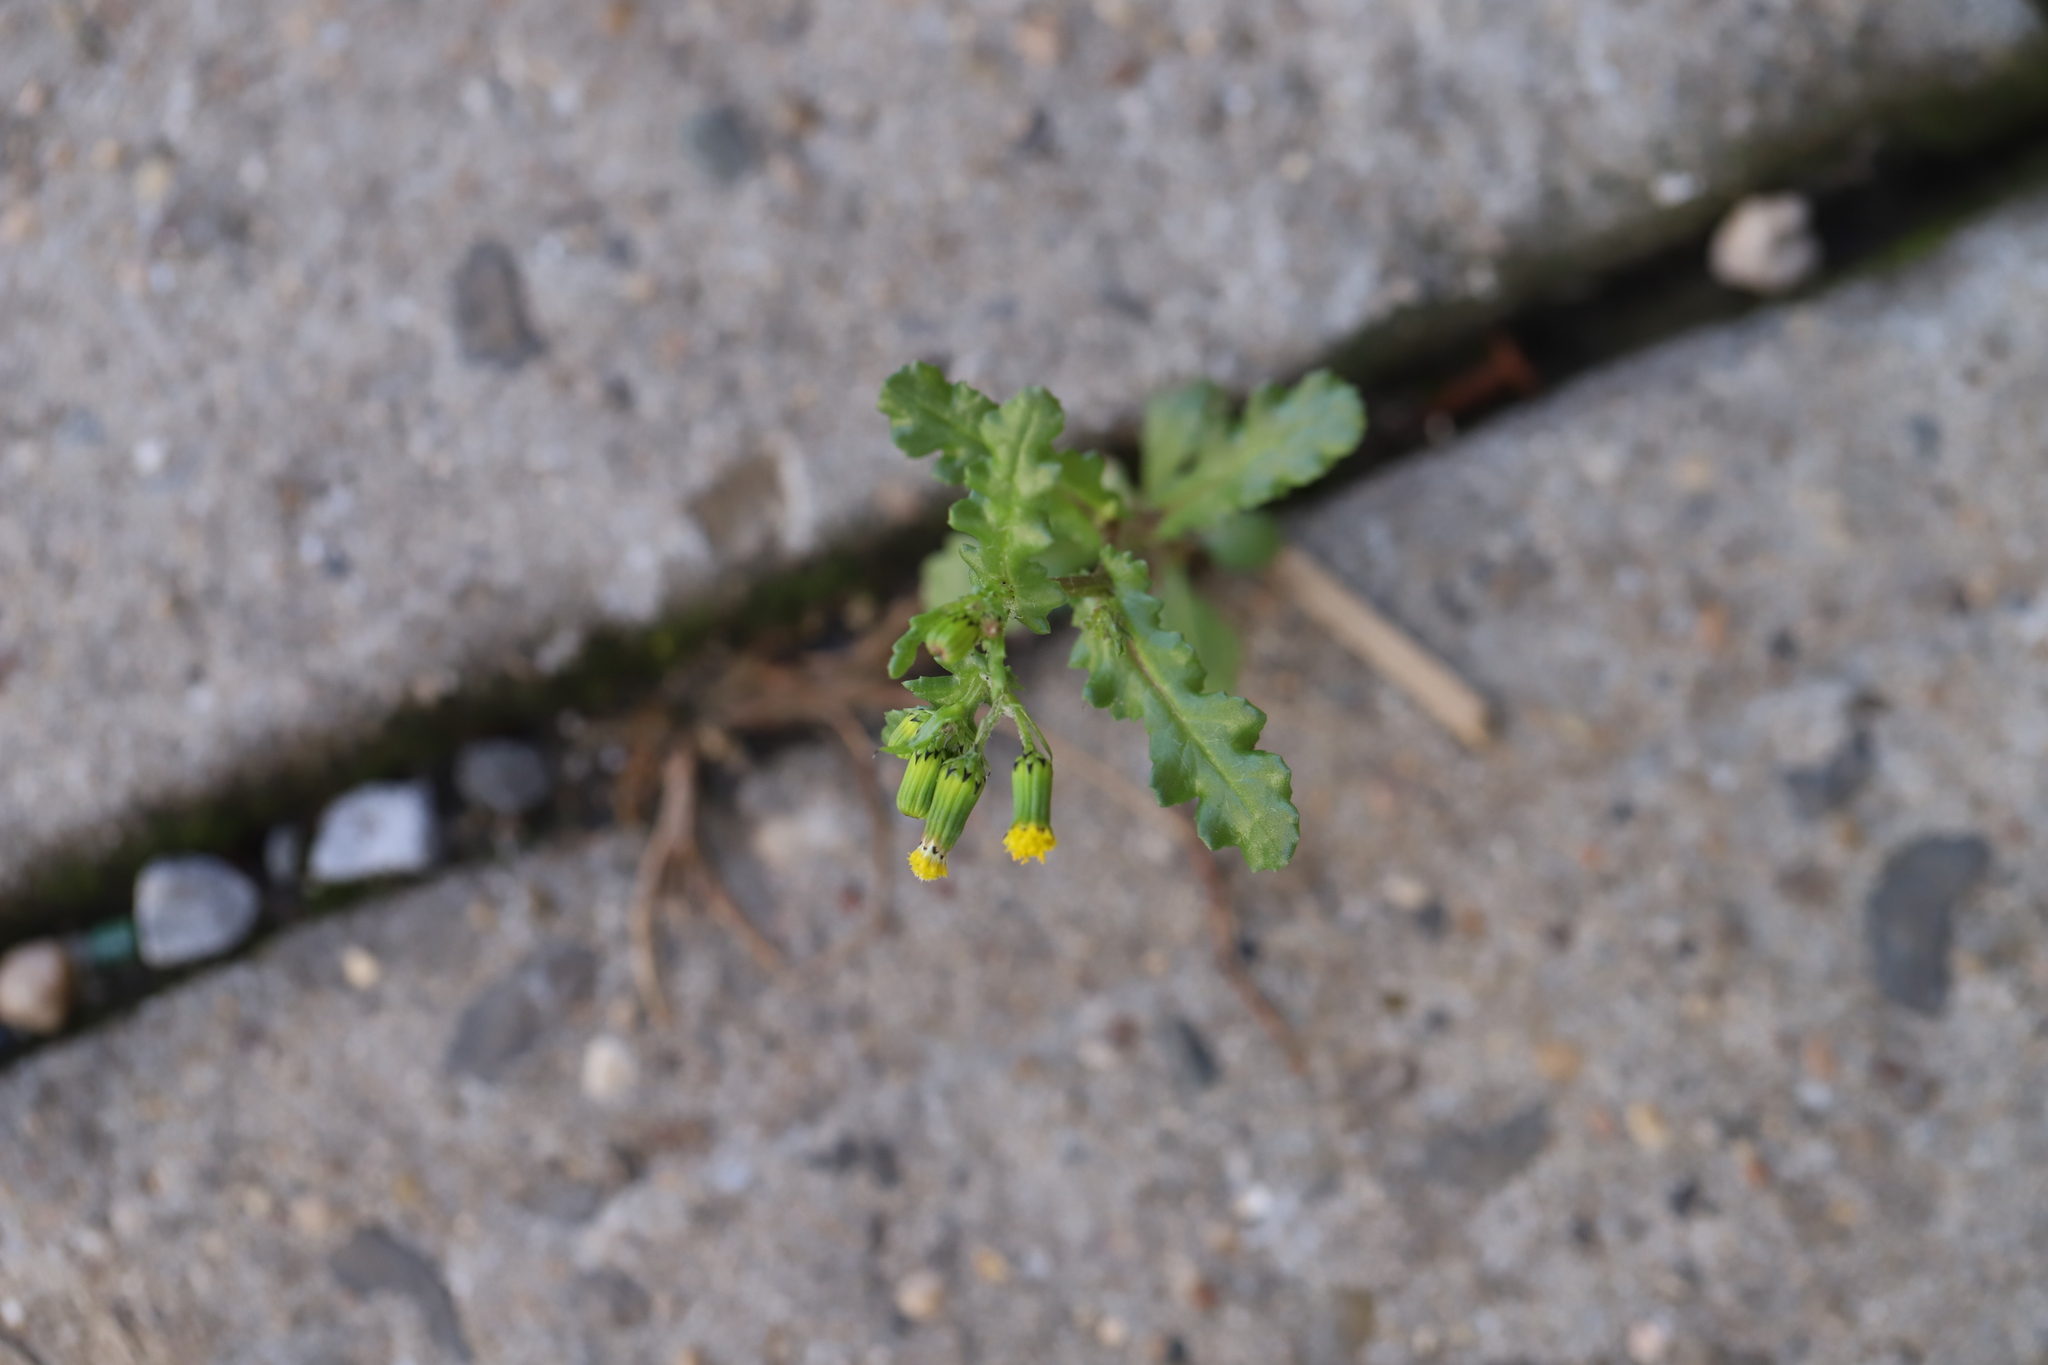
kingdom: Plantae
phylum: Tracheophyta
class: Magnoliopsida
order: Asterales
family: Asteraceae
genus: Senecio
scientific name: Senecio vulgaris
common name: Old-man-in-the-spring
